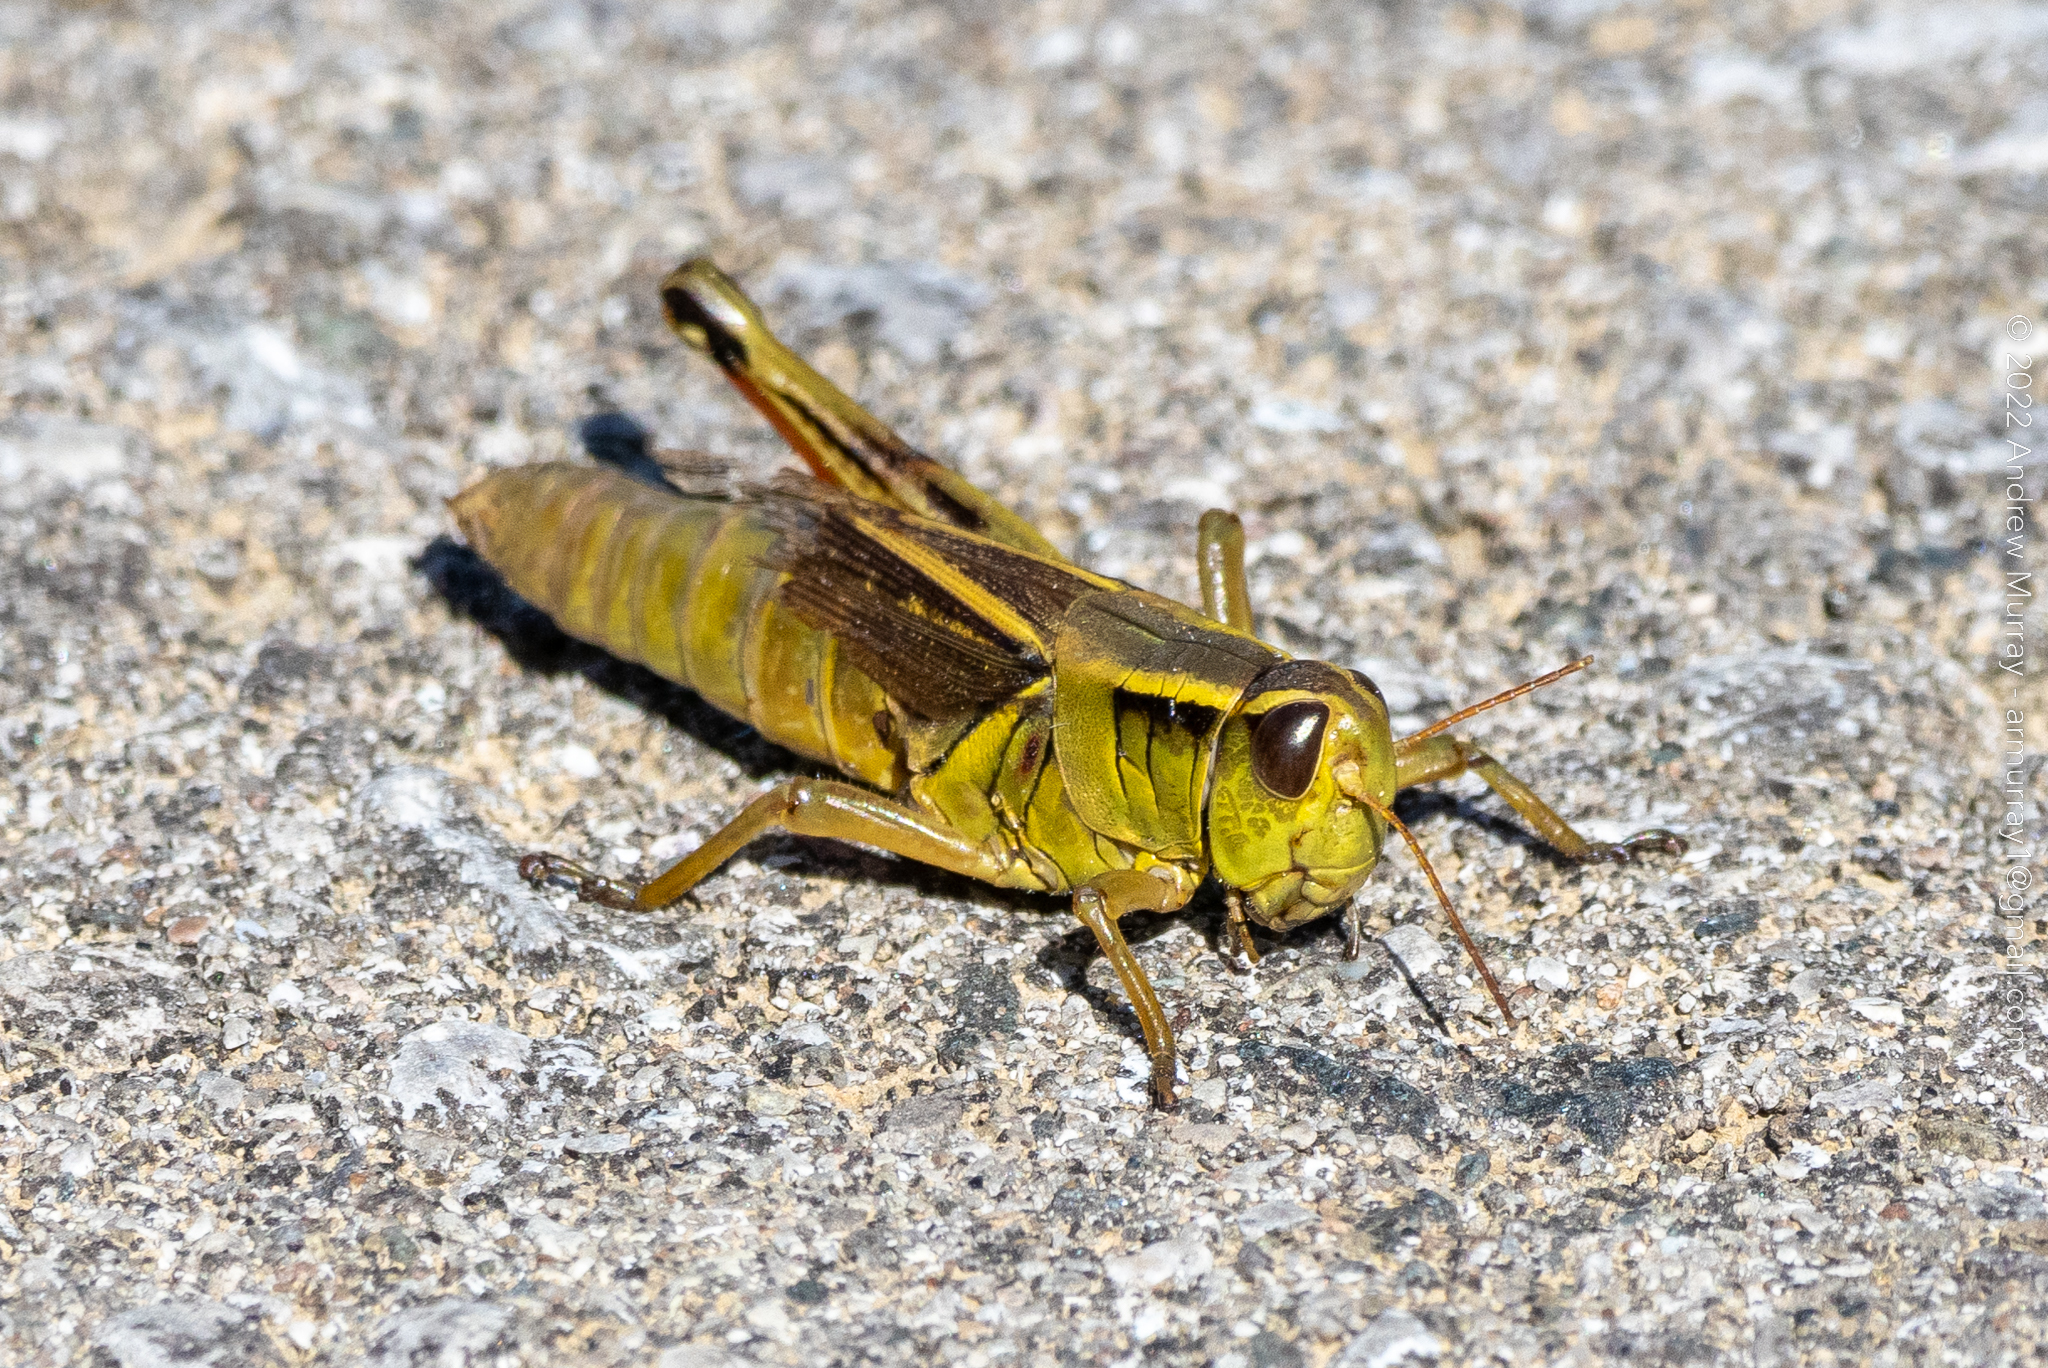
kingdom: Animalia
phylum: Arthropoda
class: Insecta
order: Orthoptera
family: Acrididae
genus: Melanoplus
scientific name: Melanoplus bivittatus
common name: Two-striped grasshopper
